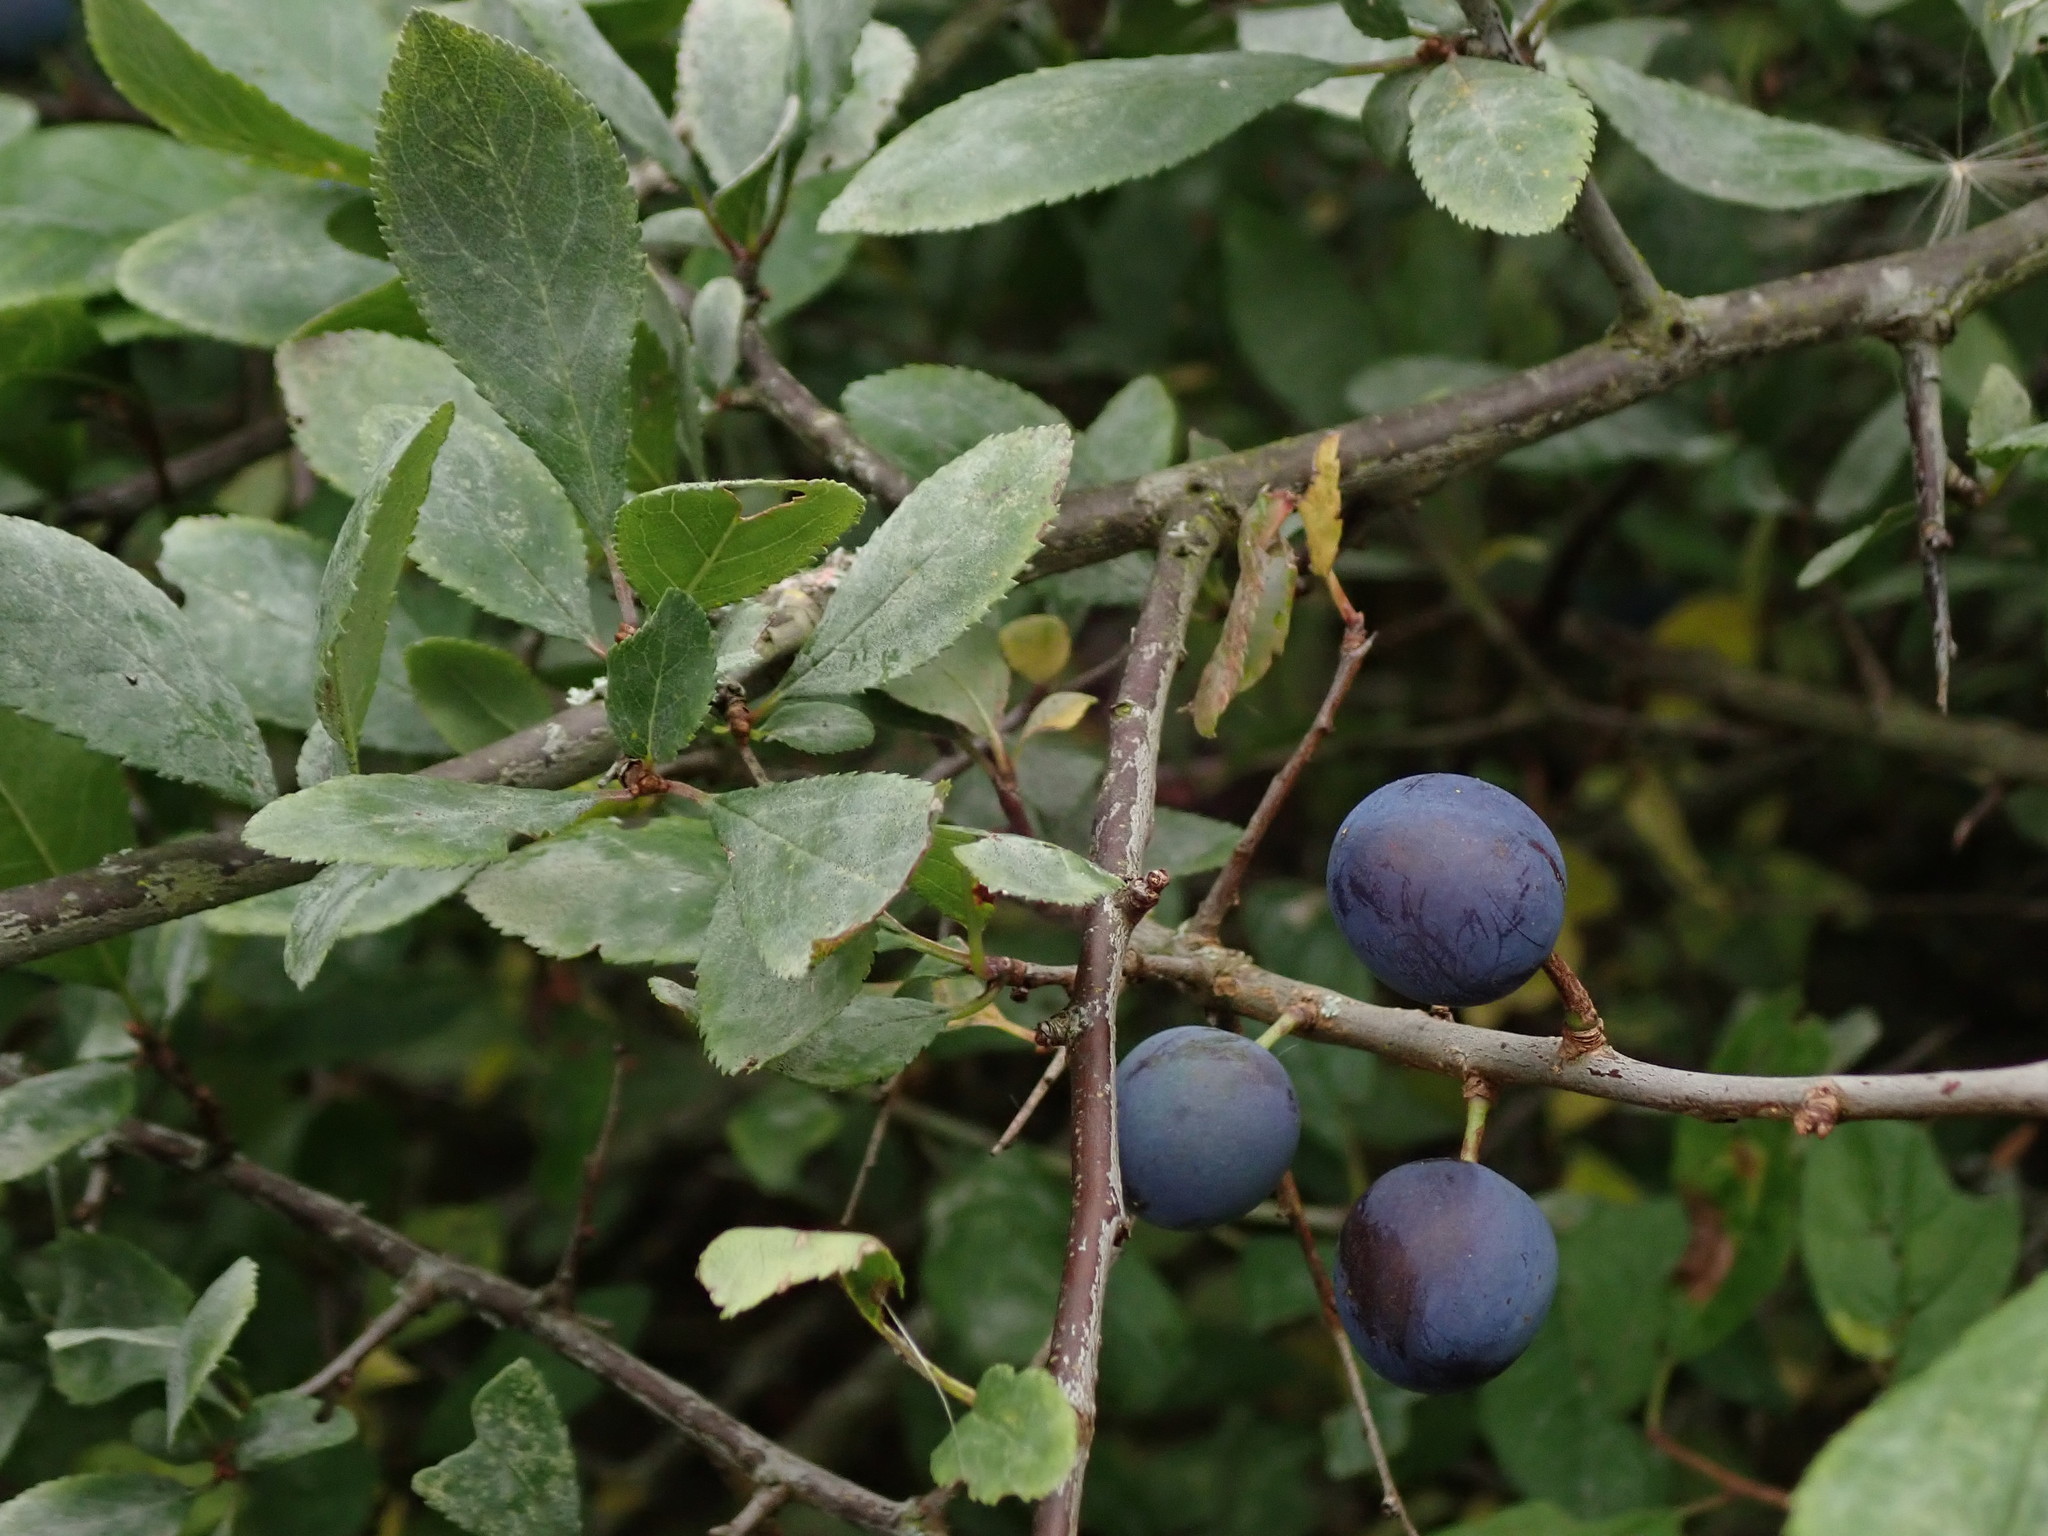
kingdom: Plantae
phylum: Tracheophyta
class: Magnoliopsida
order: Rosales
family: Rosaceae
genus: Prunus
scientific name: Prunus spinosa
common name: Blackthorn
